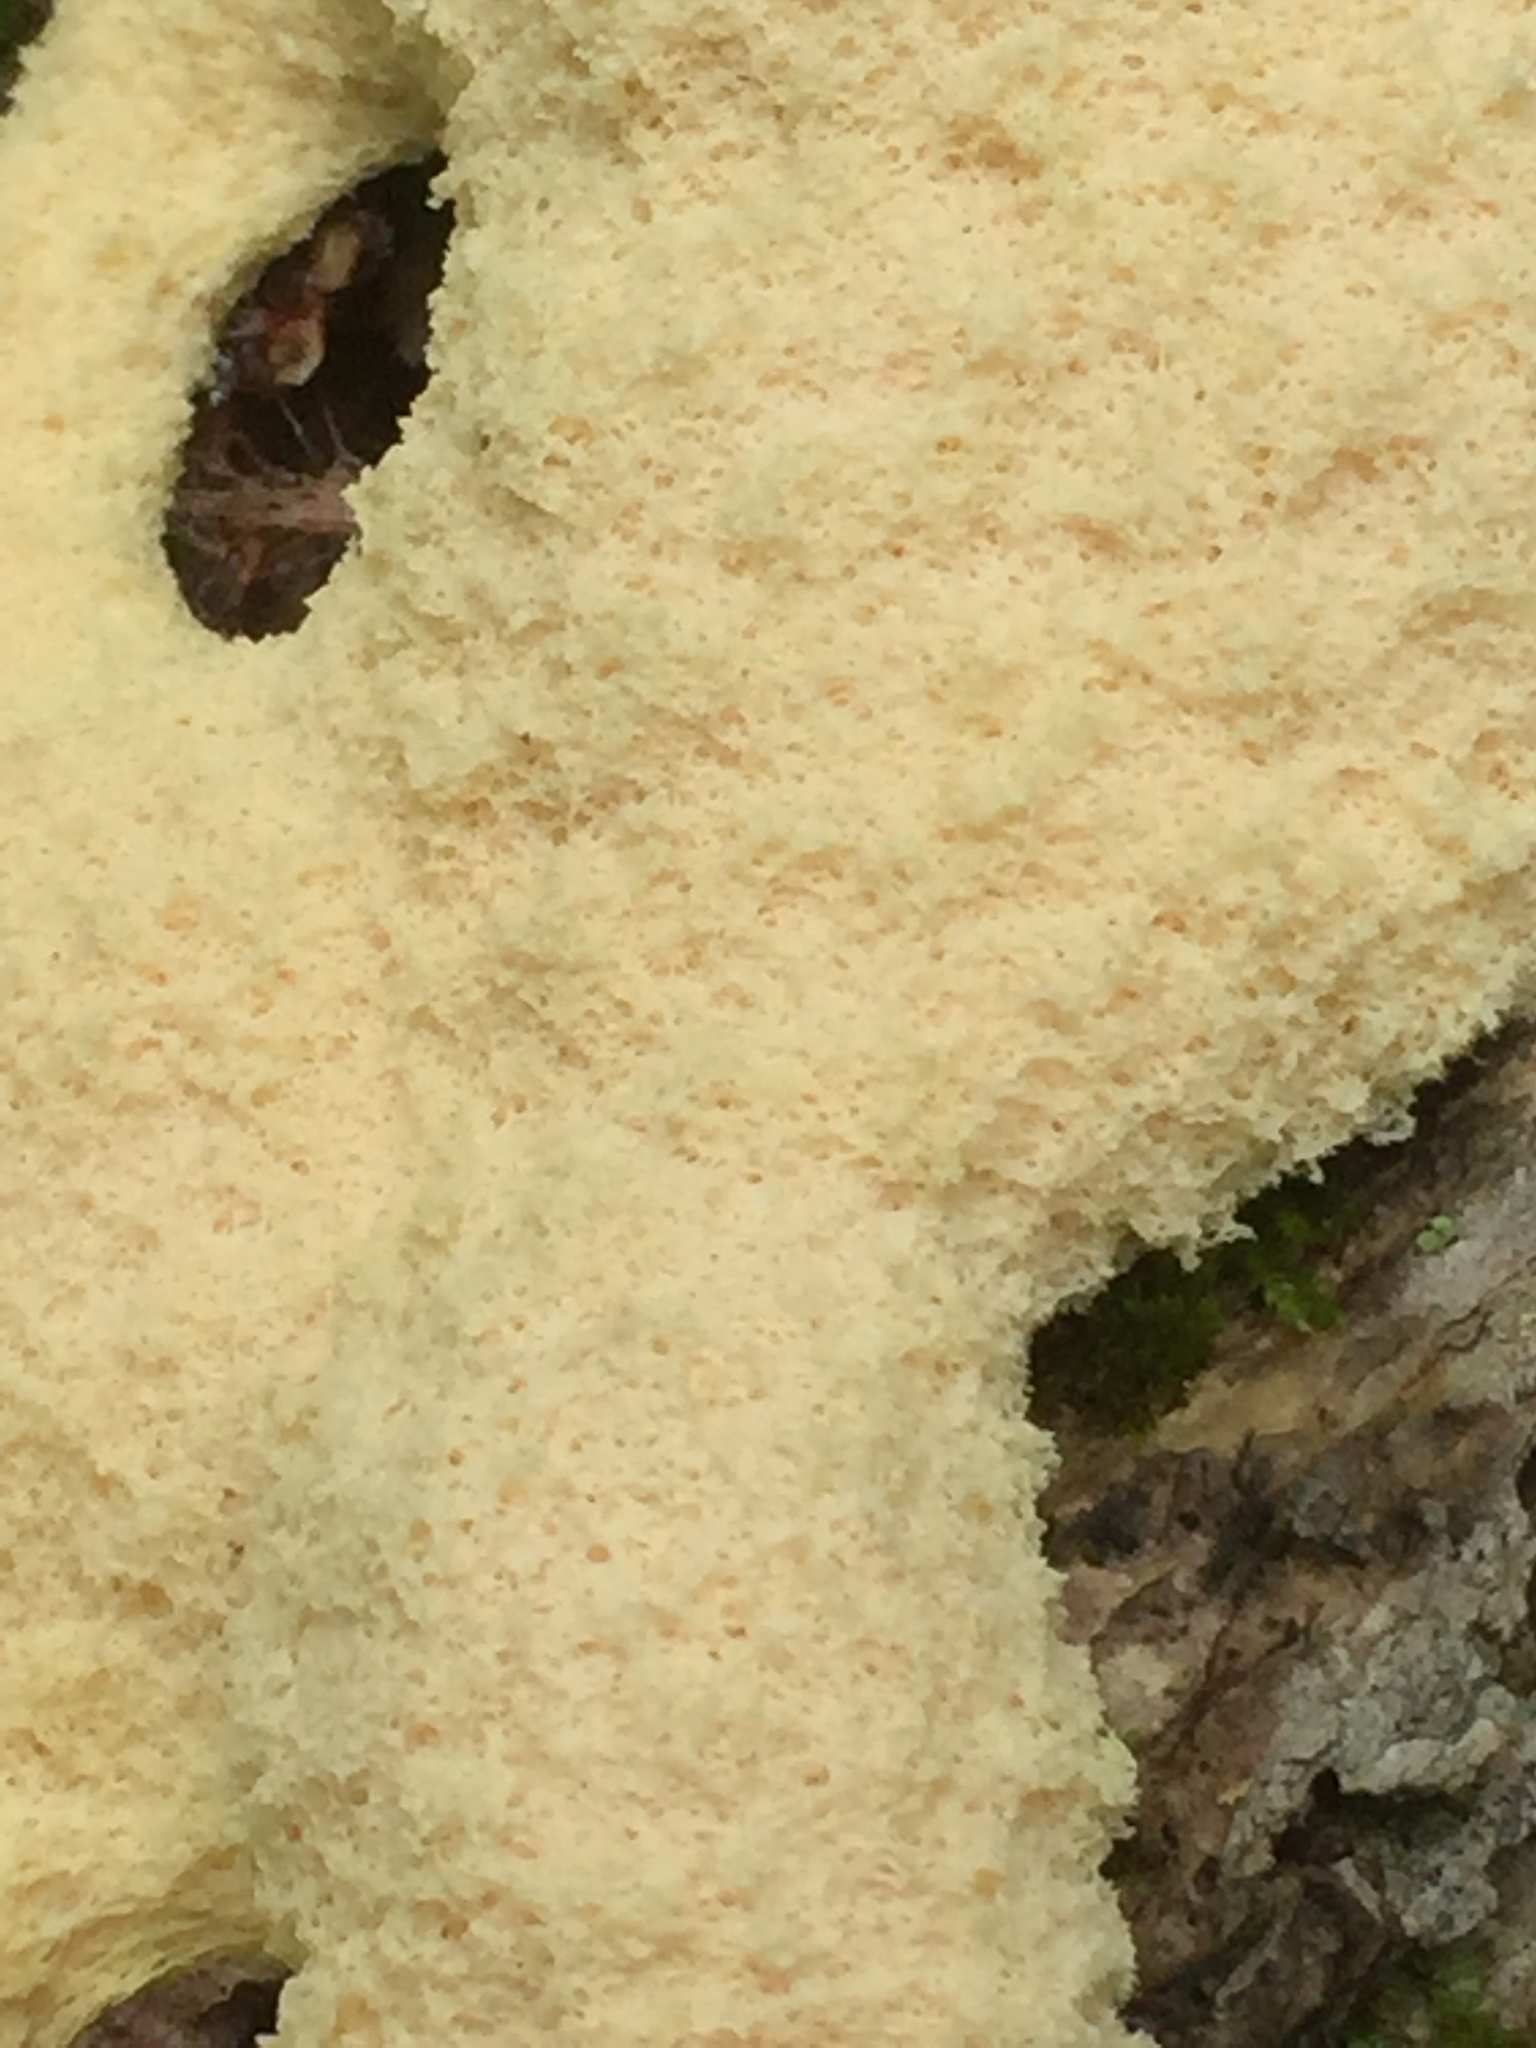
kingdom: Protozoa
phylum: Mycetozoa
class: Myxomycetes
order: Physarales
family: Physaraceae
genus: Fuligo
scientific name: Fuligo septica
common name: Dog vomit slime mold
